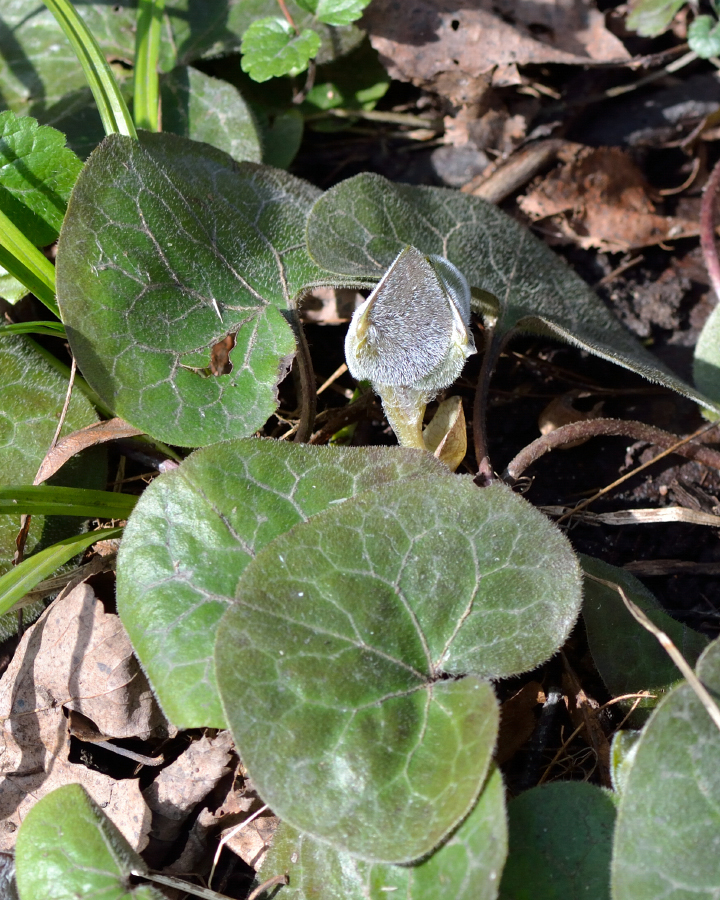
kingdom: Plantae
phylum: Tracheophyta
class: Magnoliopsida
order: Piperales
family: Aristolochiaceae
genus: Asarum
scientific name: Asarum europaeum
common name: Asarabacca
